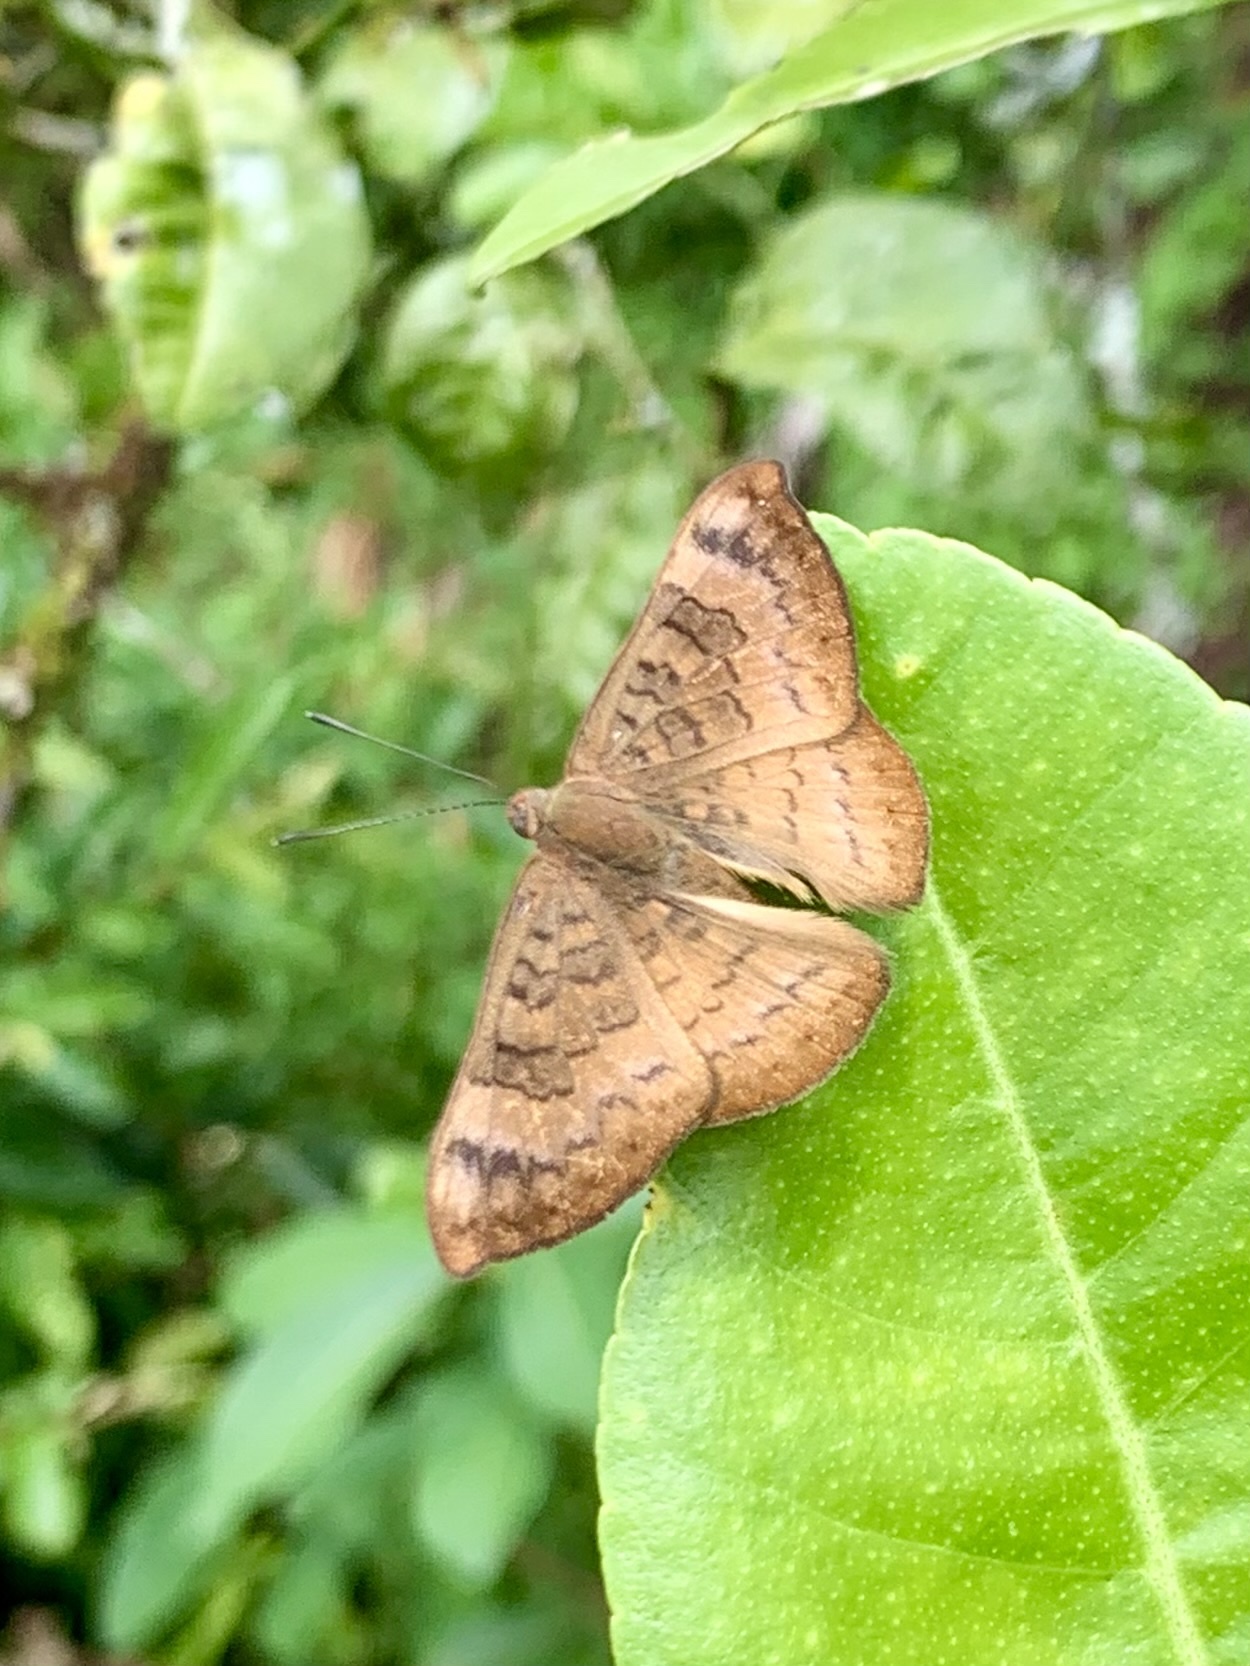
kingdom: Animalia
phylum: Arthropoda
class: Insecta
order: Lepidoptera
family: Lycaenidae
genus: Emesis
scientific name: Emesis tegula
